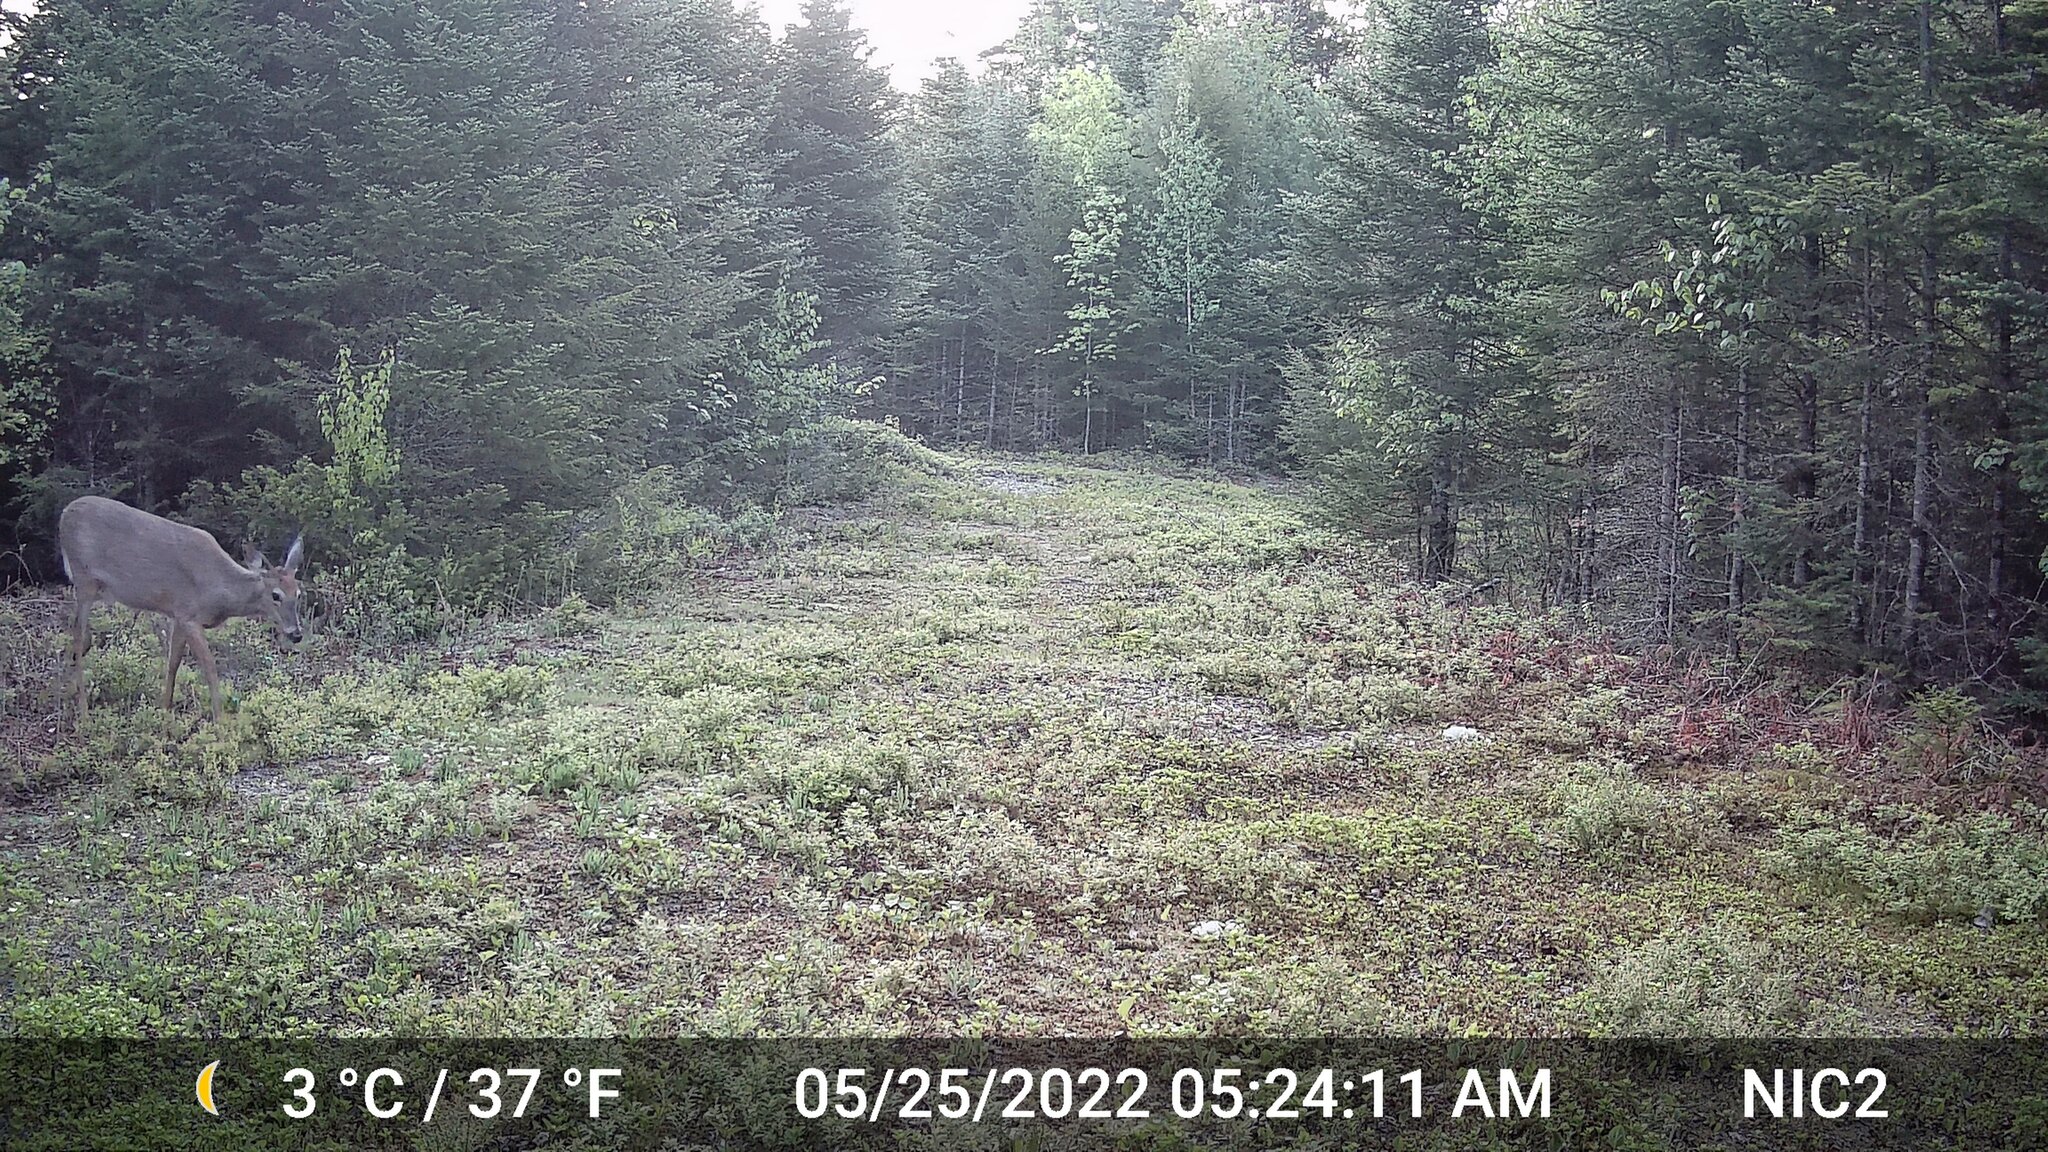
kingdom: Animalia
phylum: Chordata
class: Mammalia
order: Artiodactyla
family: Cervidae
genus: Odocoileus
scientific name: Odocoileus virginianus
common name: White-tailed deer
